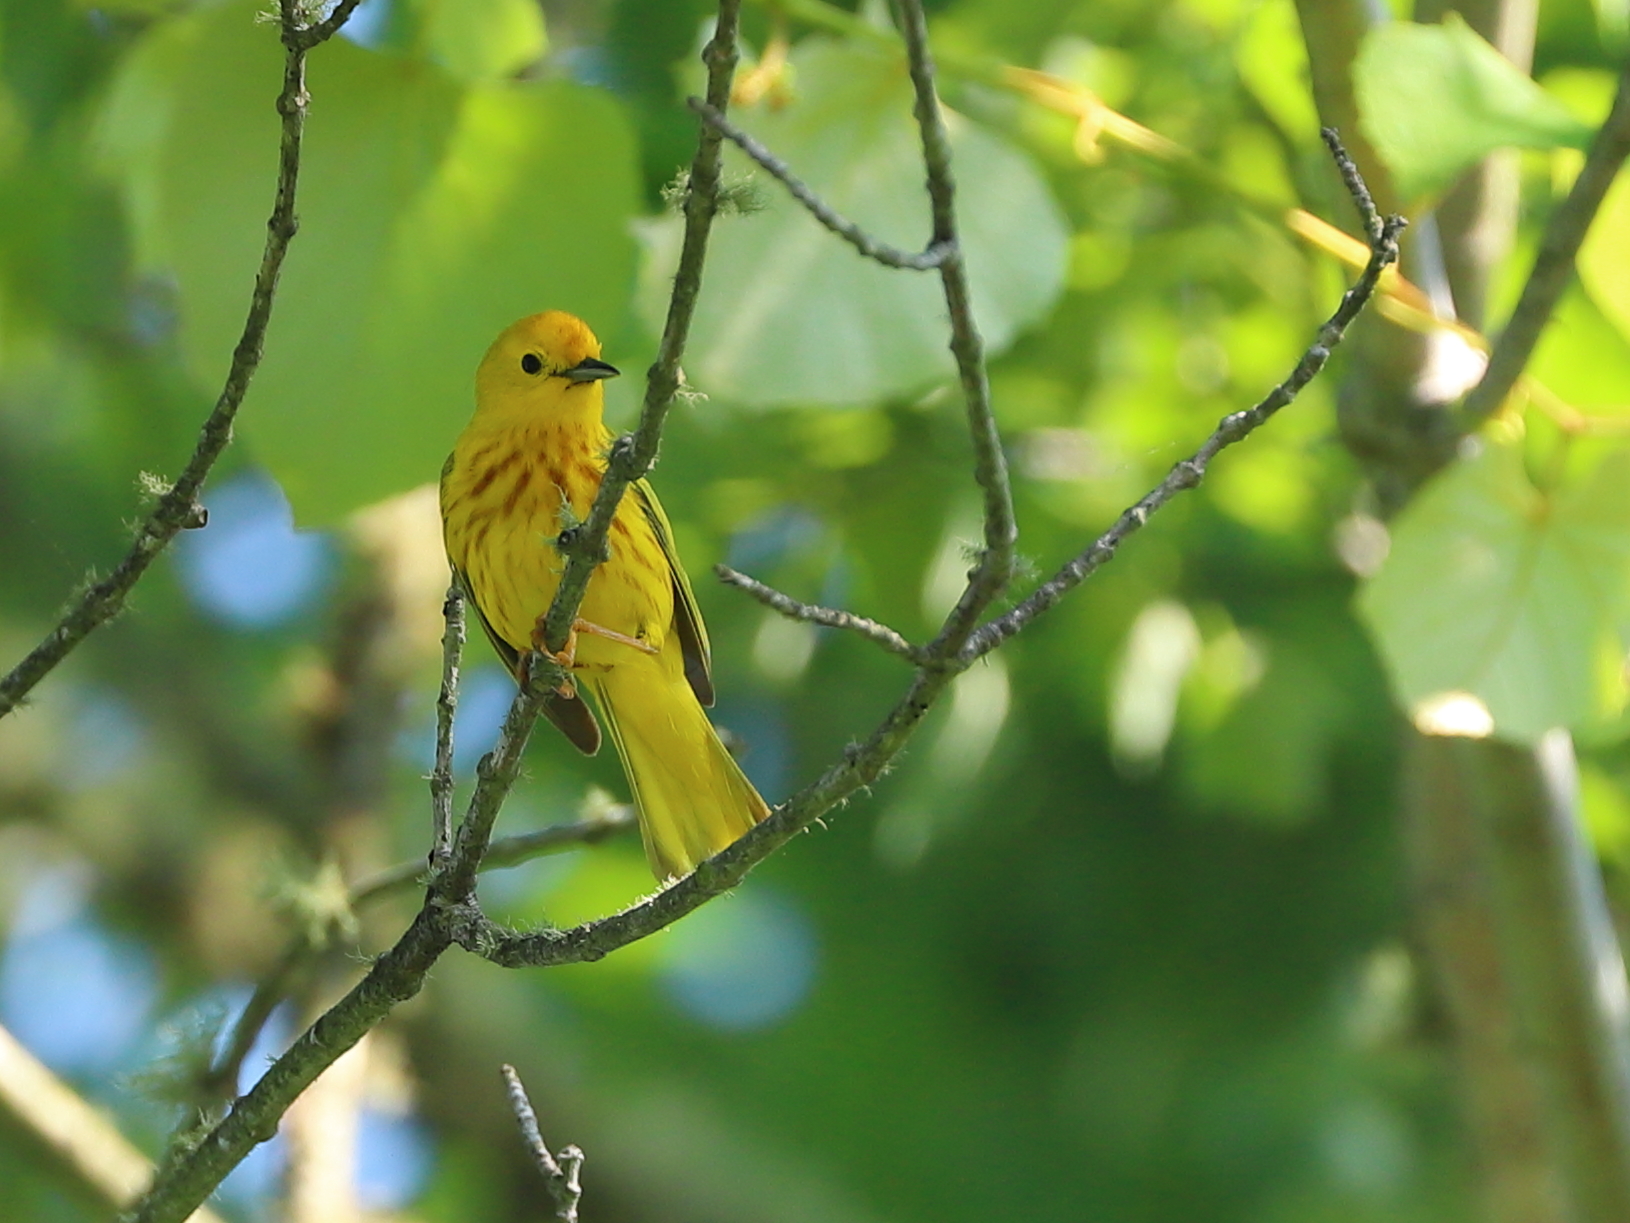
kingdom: Animalia
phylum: Chordata
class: Aves
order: Passeriformes
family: Parulidae
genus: Setophaga
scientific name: Setophaga petechia
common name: Yellow warbler
